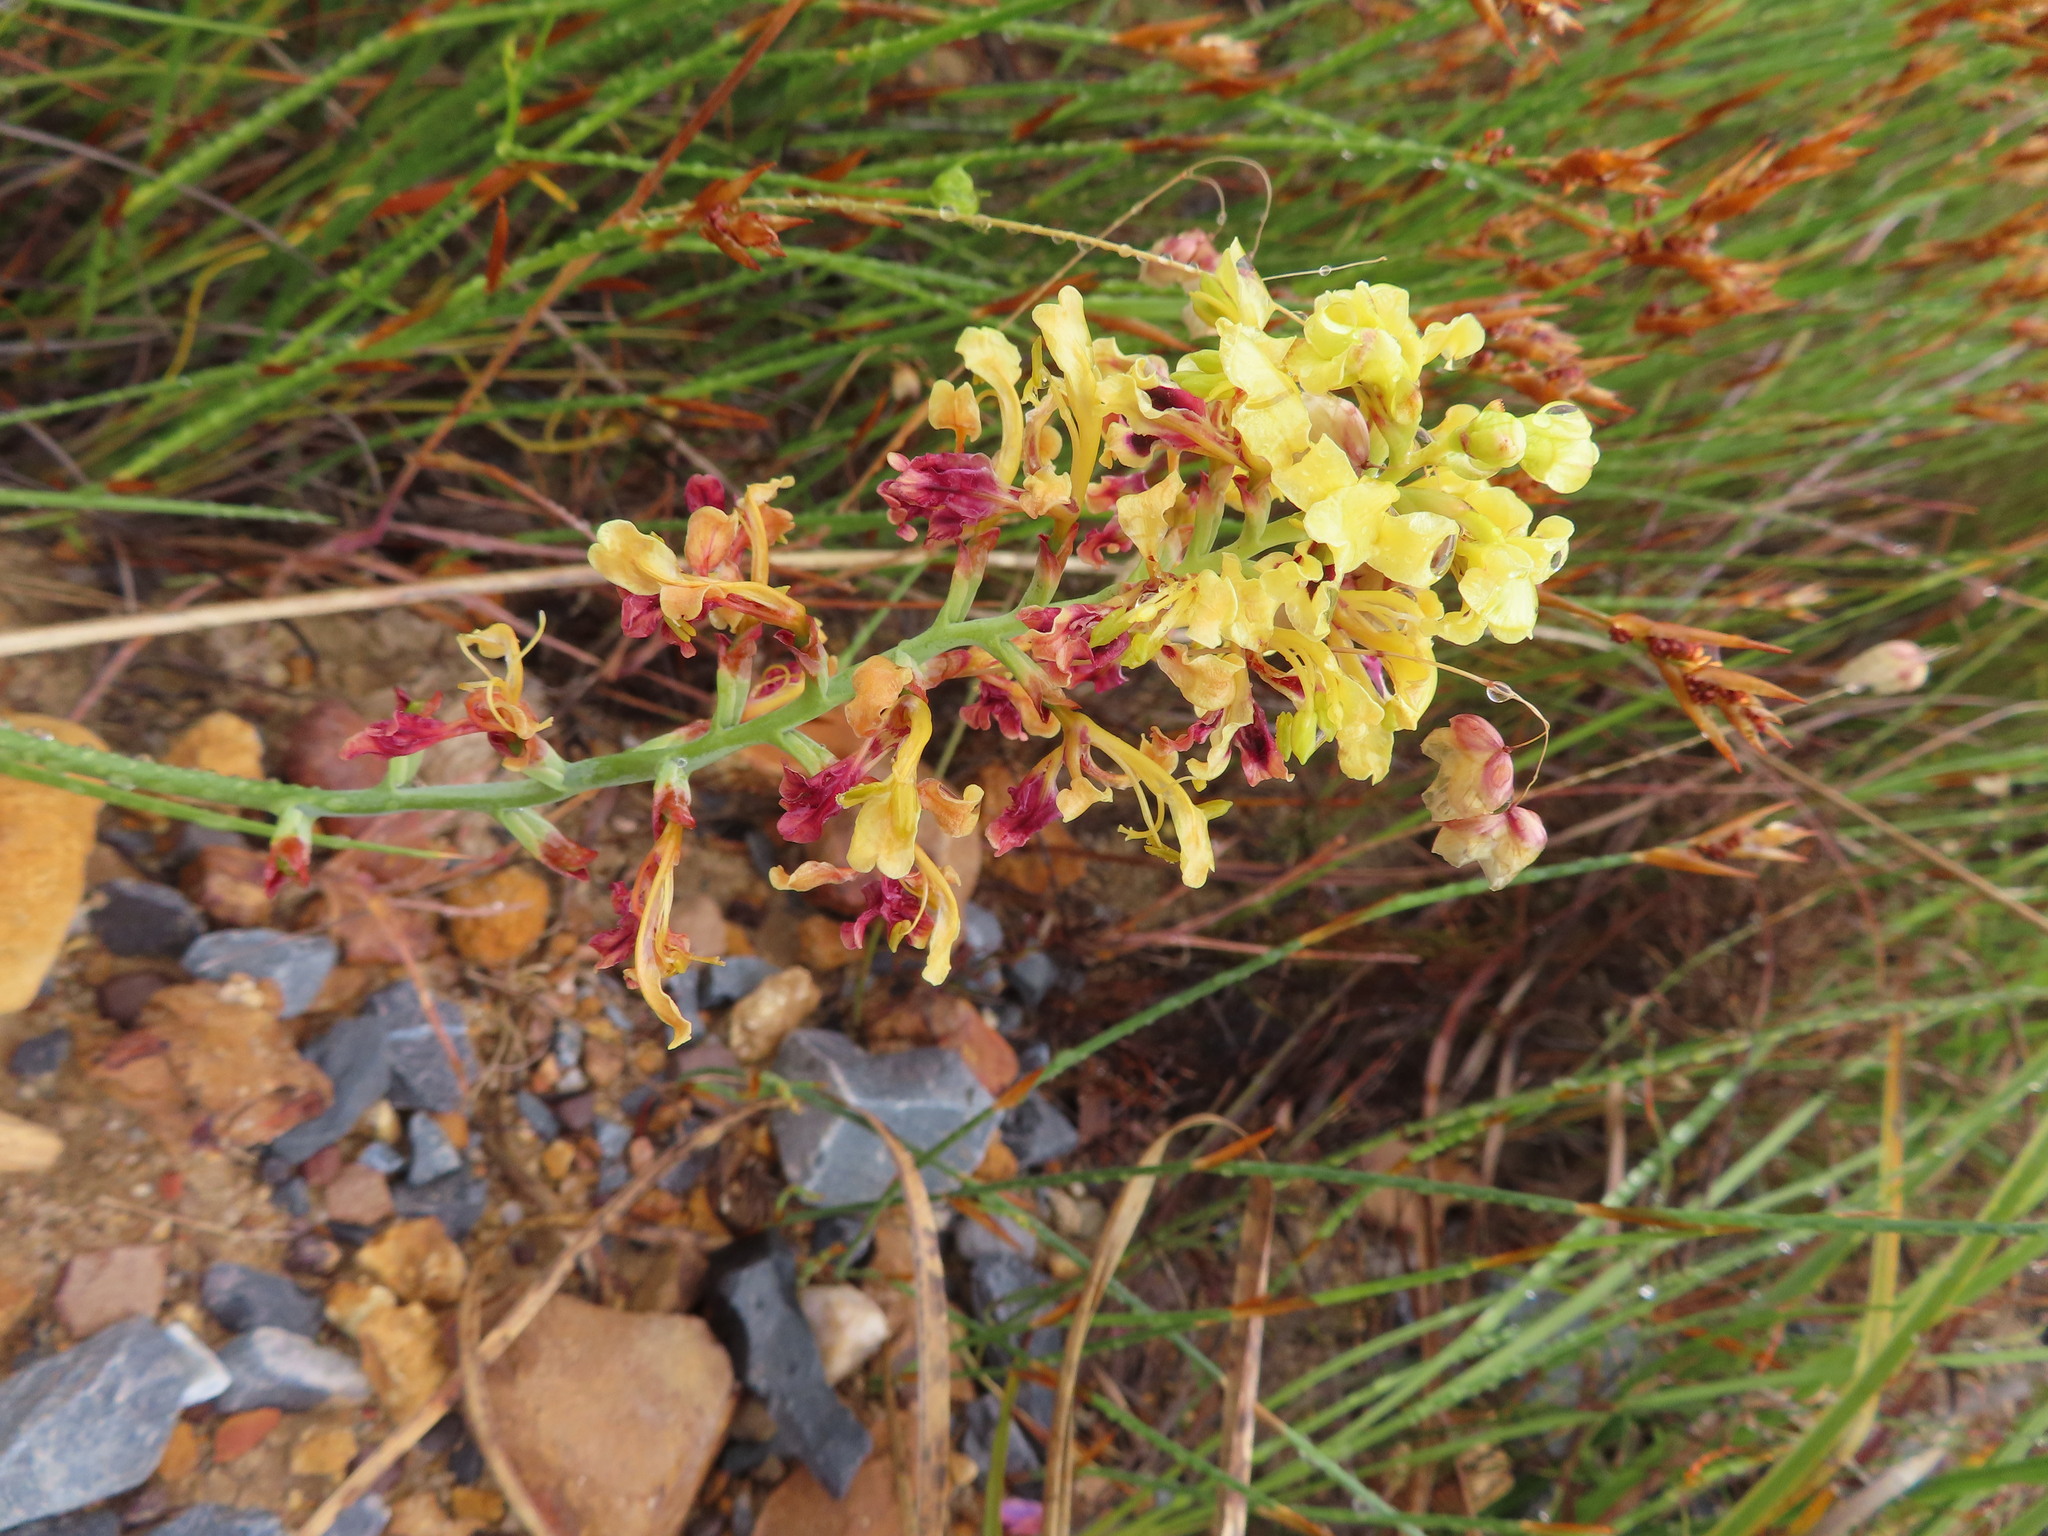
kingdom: Plantae
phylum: Tracheophyta
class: Liliopsida
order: Asparagales
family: Iridaceae
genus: Tritoniopsis
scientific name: Tritoniopsis parviflora
